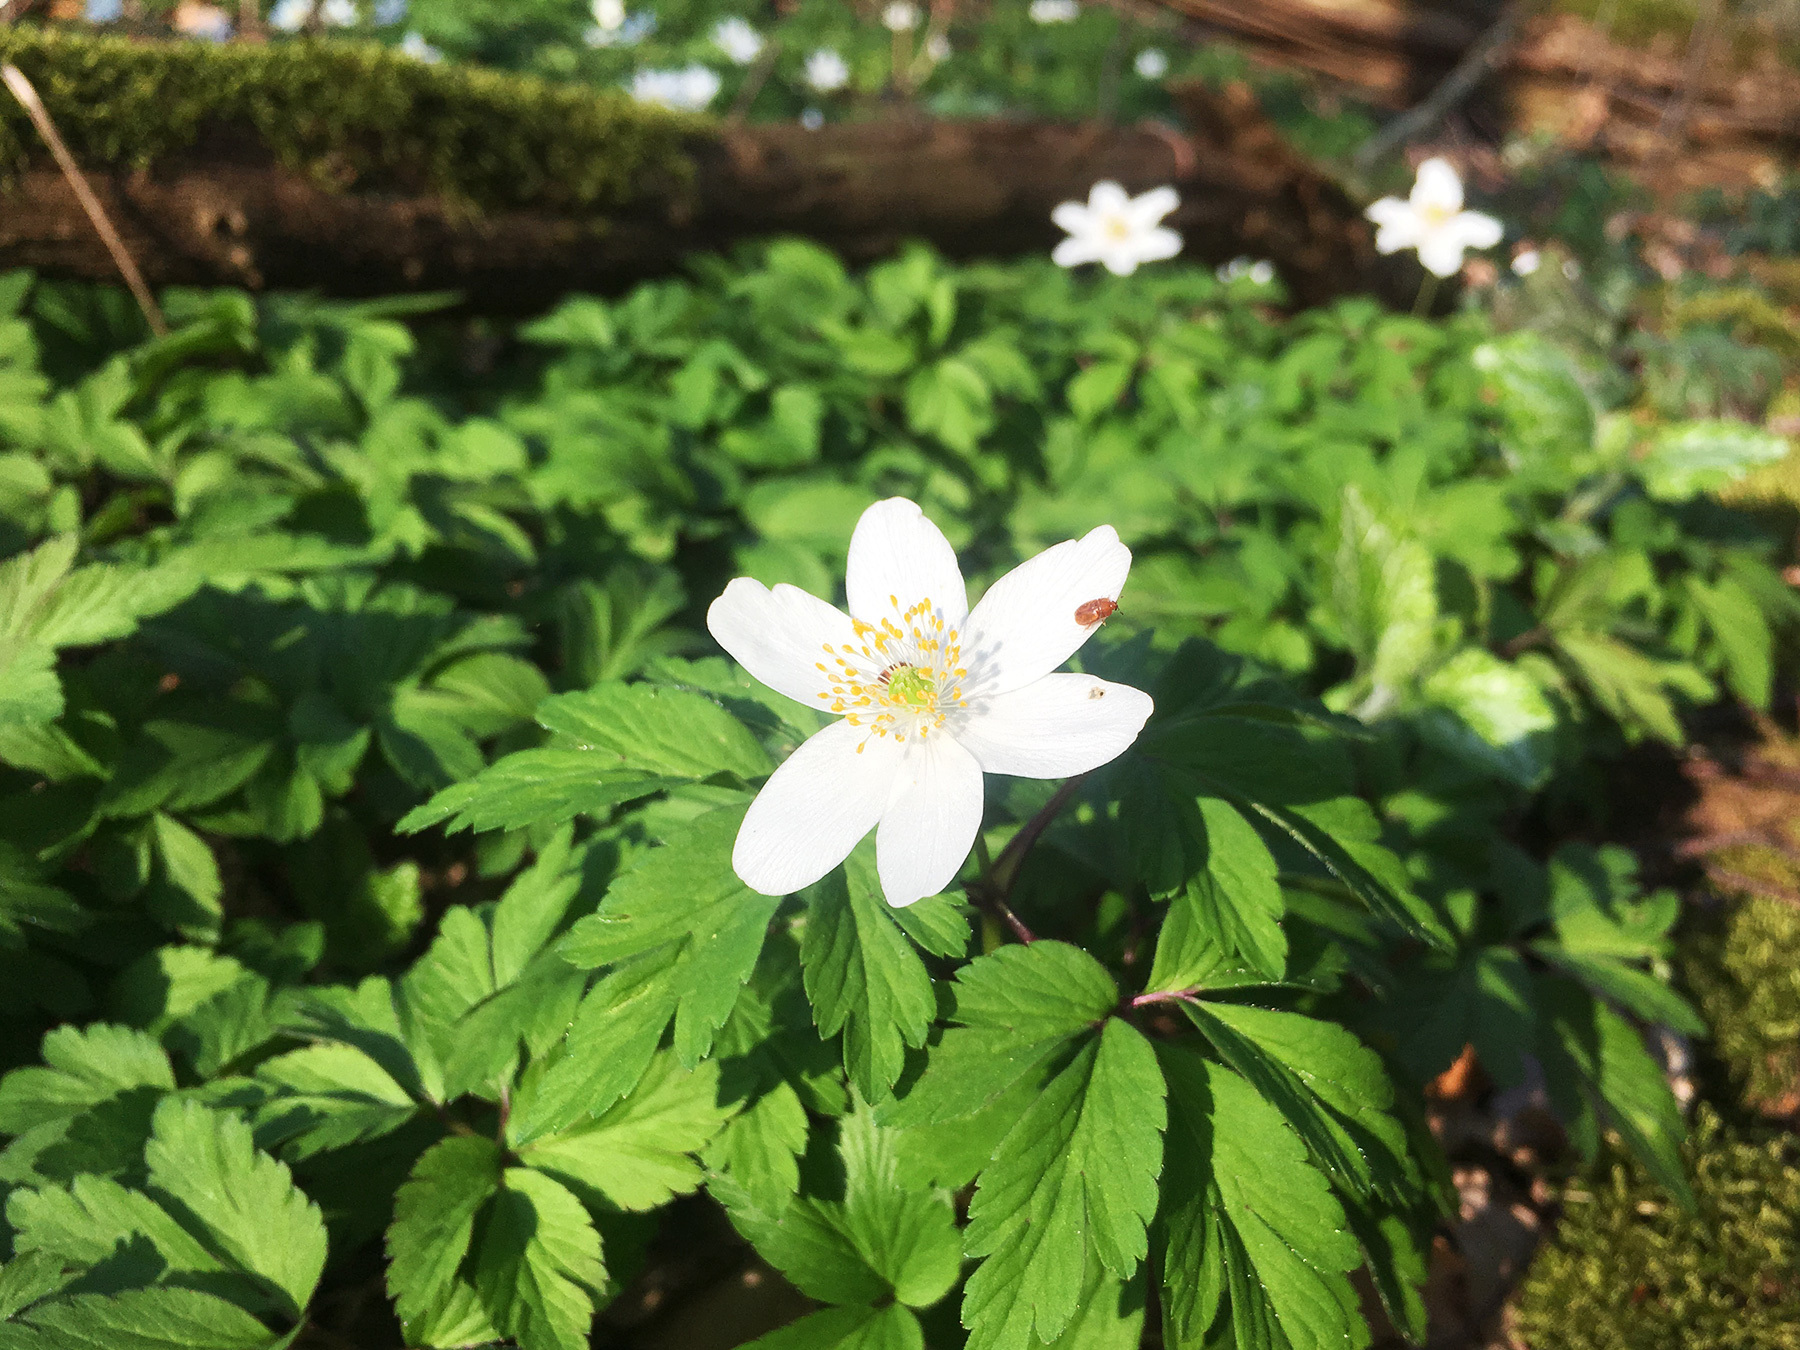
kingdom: Plantae
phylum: Tracheophyta
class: Magnoliopsida
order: Ranunculales
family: Ranunculaceae
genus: Anemone
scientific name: Anemone nemorosa
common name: Wood anemone
